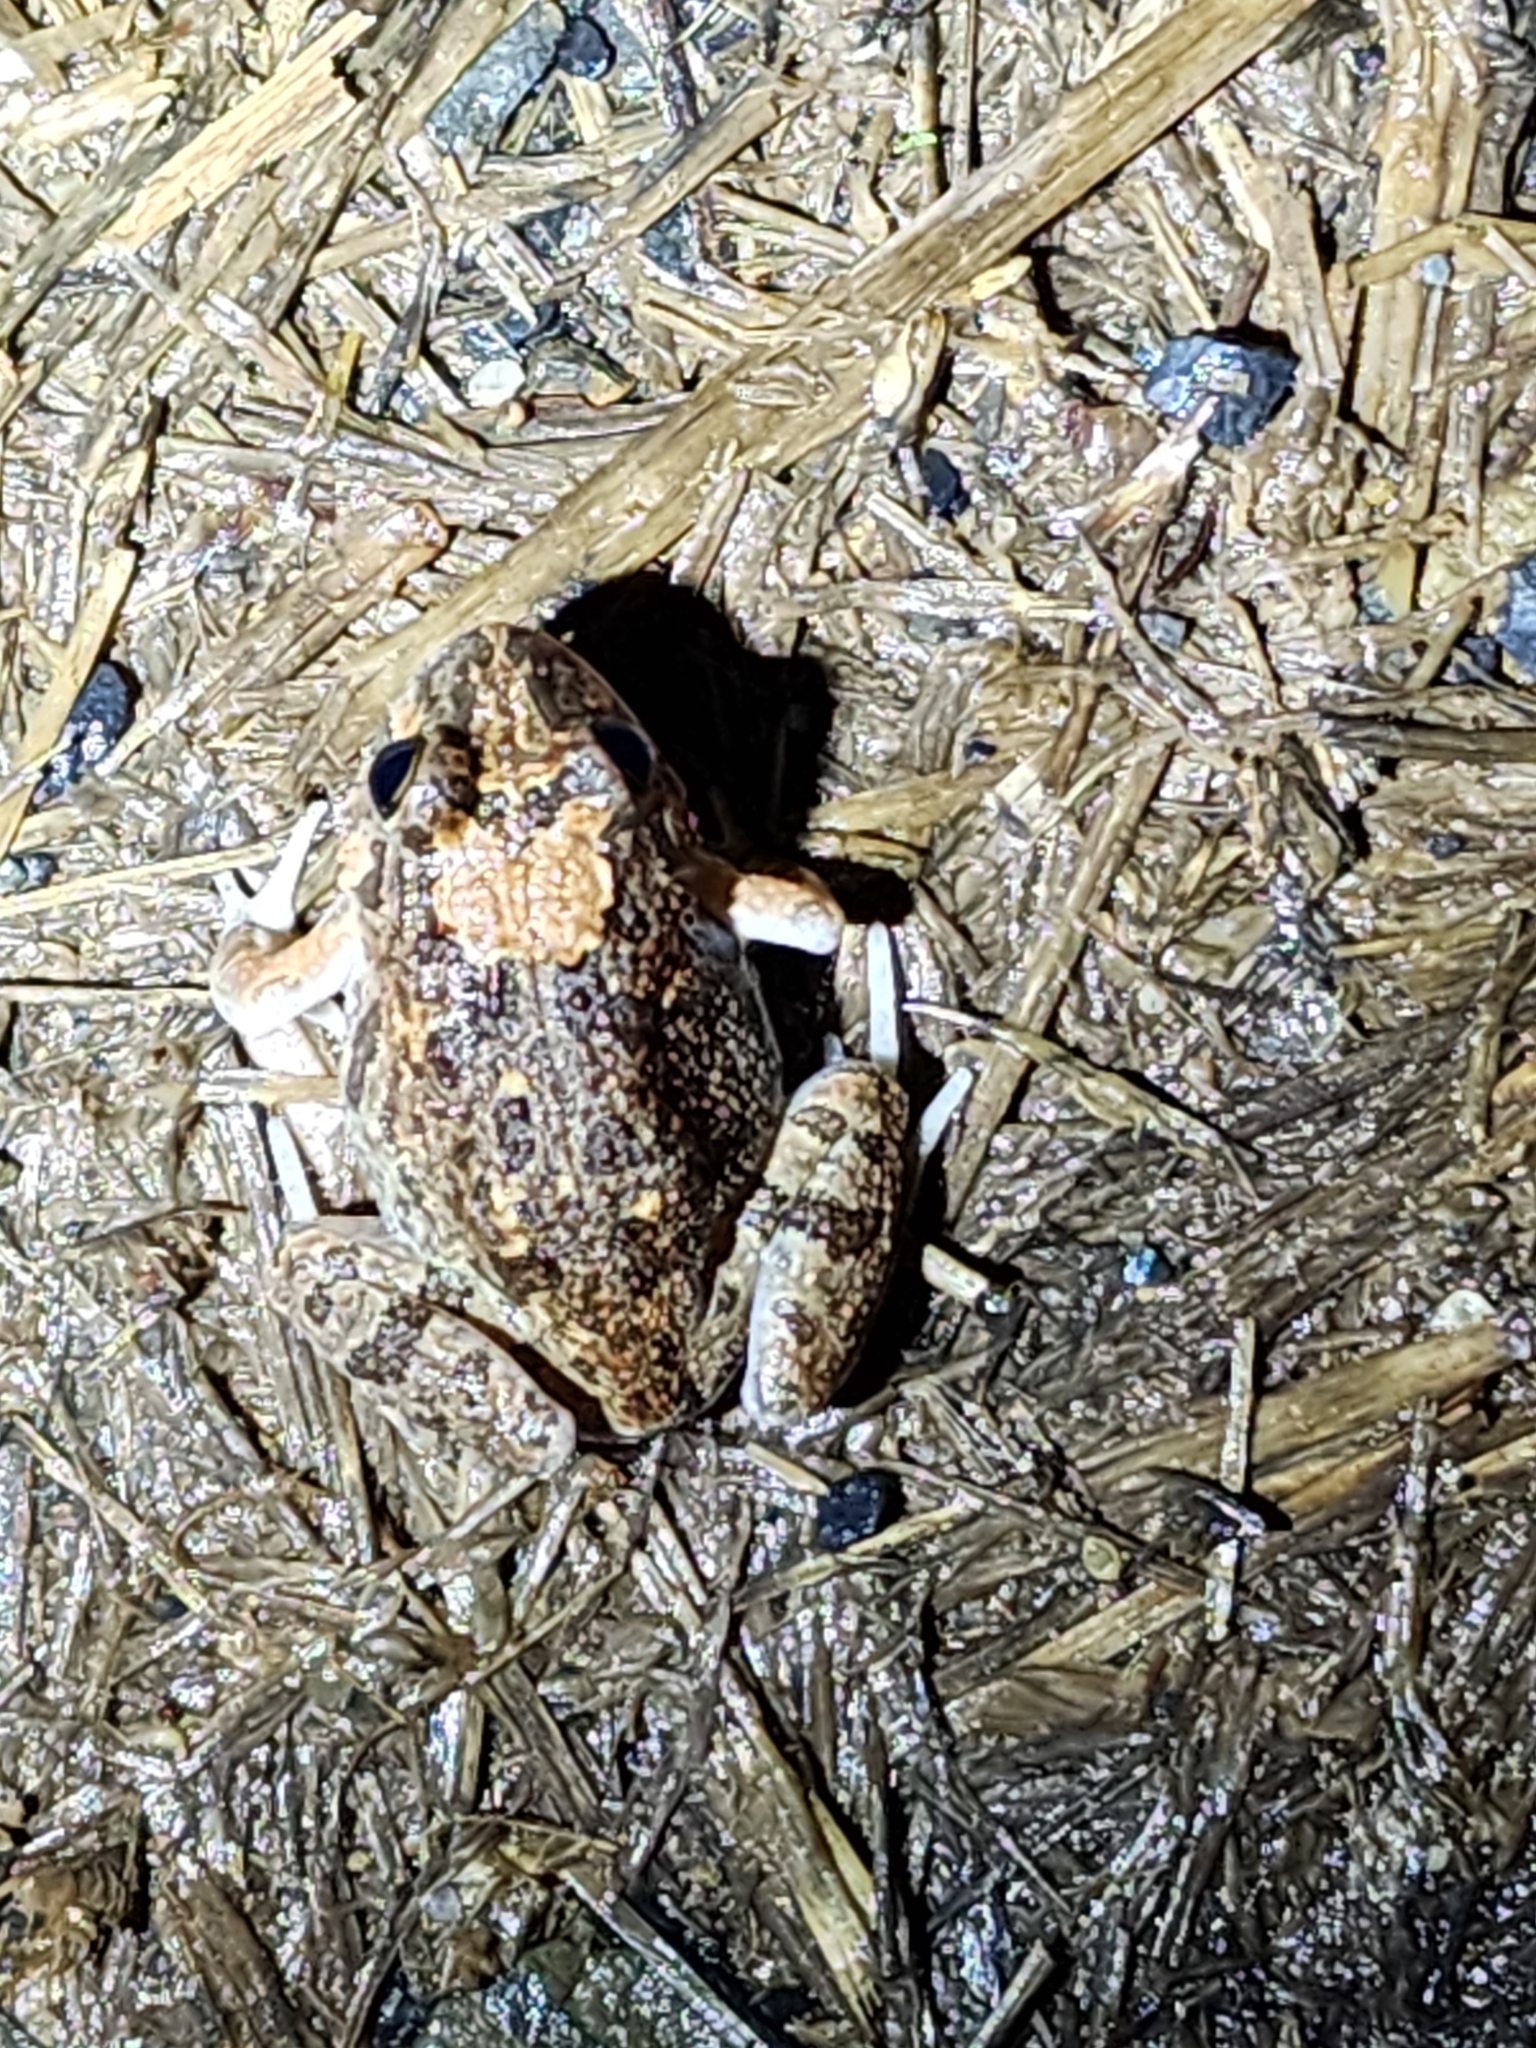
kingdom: Animalia
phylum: Chordata
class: Amphibia
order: Anura
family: Limnodynastidae
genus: Platyplectrum
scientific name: Platyplectrum ornatum
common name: Ornate burrowing frog
